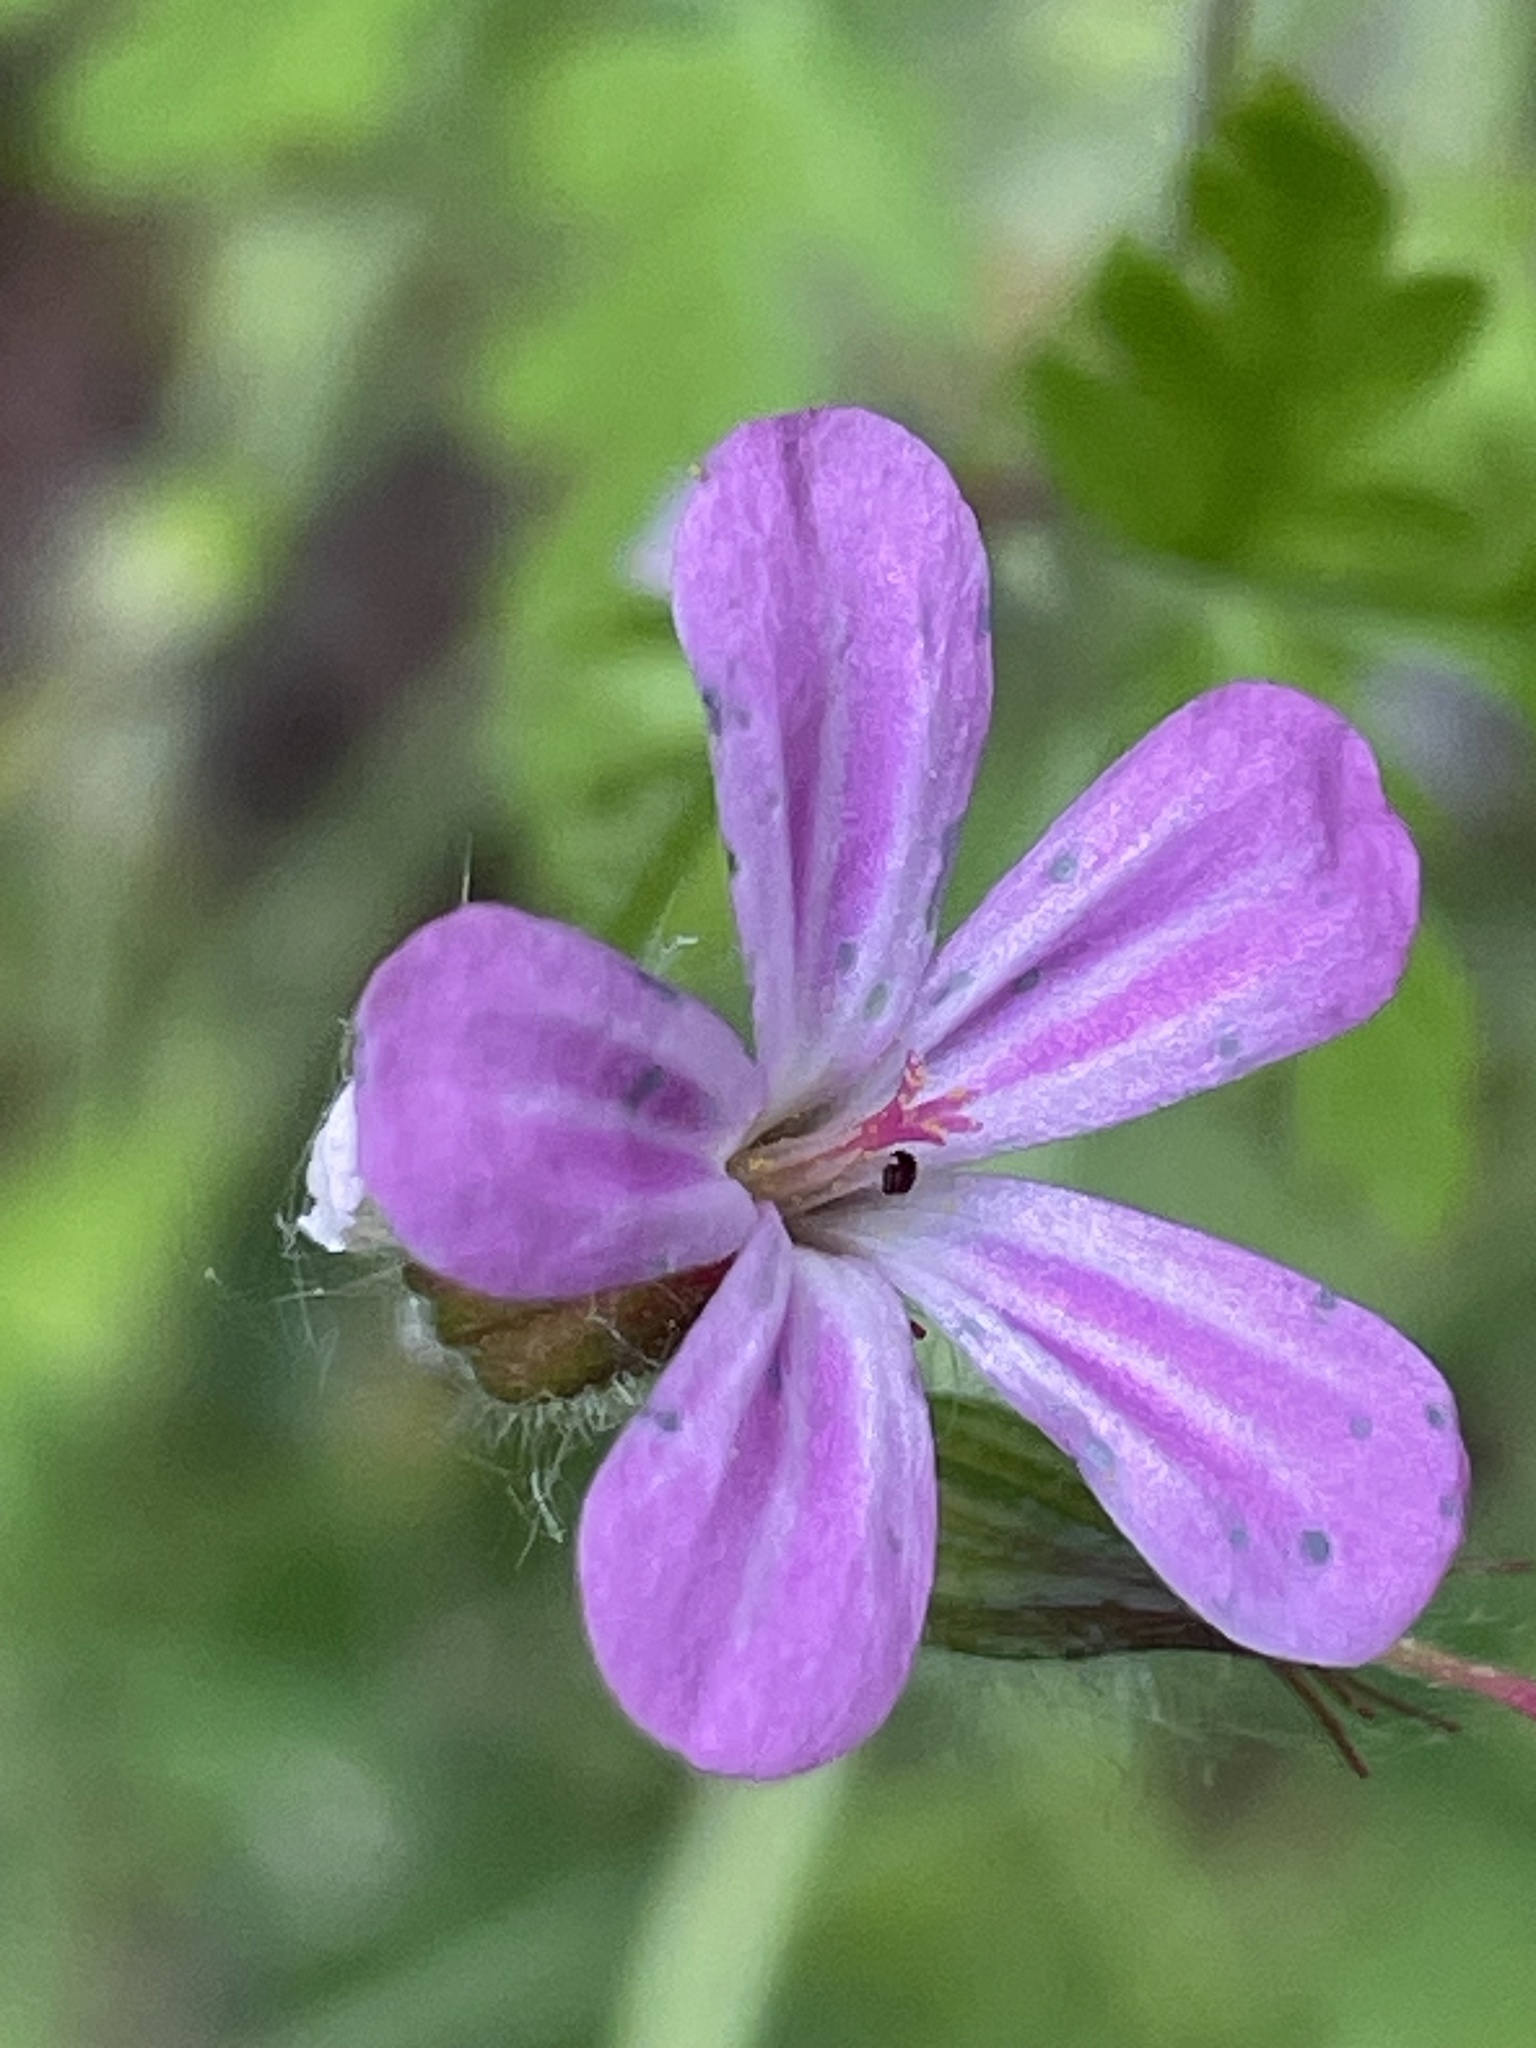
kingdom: Plantae
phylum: Tracheophyta
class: Magnoliopsida
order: Geraniales
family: Geraniaceae
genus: Geranium
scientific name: Geranium robertianum
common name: Herb-robert
